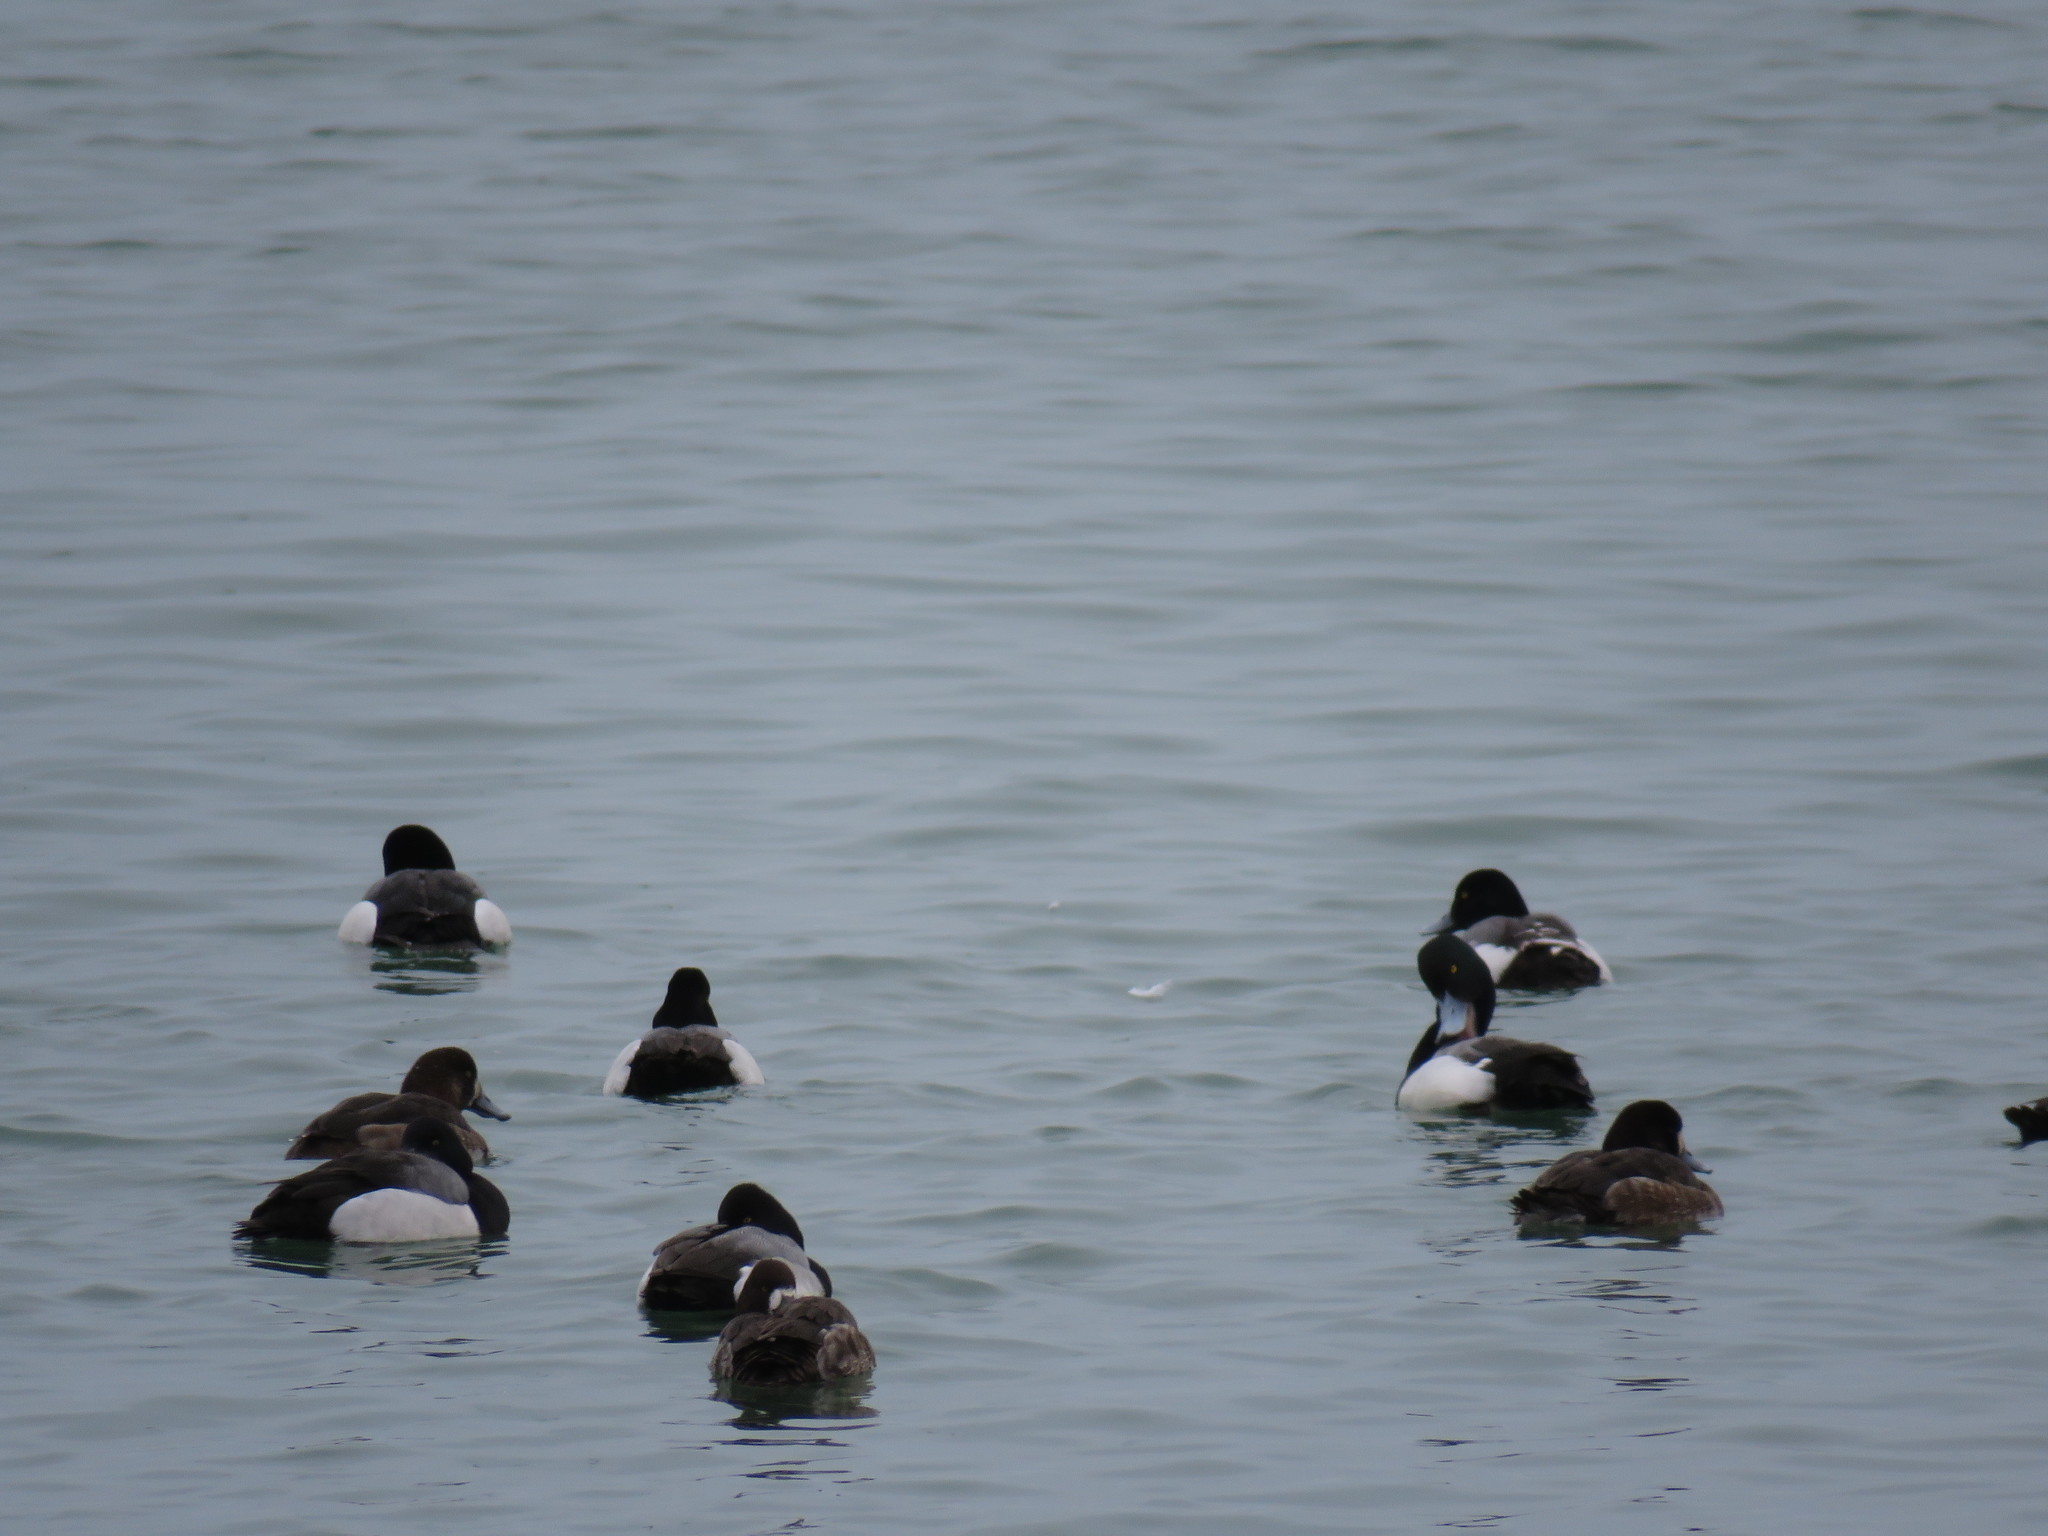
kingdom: Animalia
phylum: Chordata
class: Aves
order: Anseriformes
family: Anatidae
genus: Aythya
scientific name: Aythya affinis
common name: Lesser scaup
